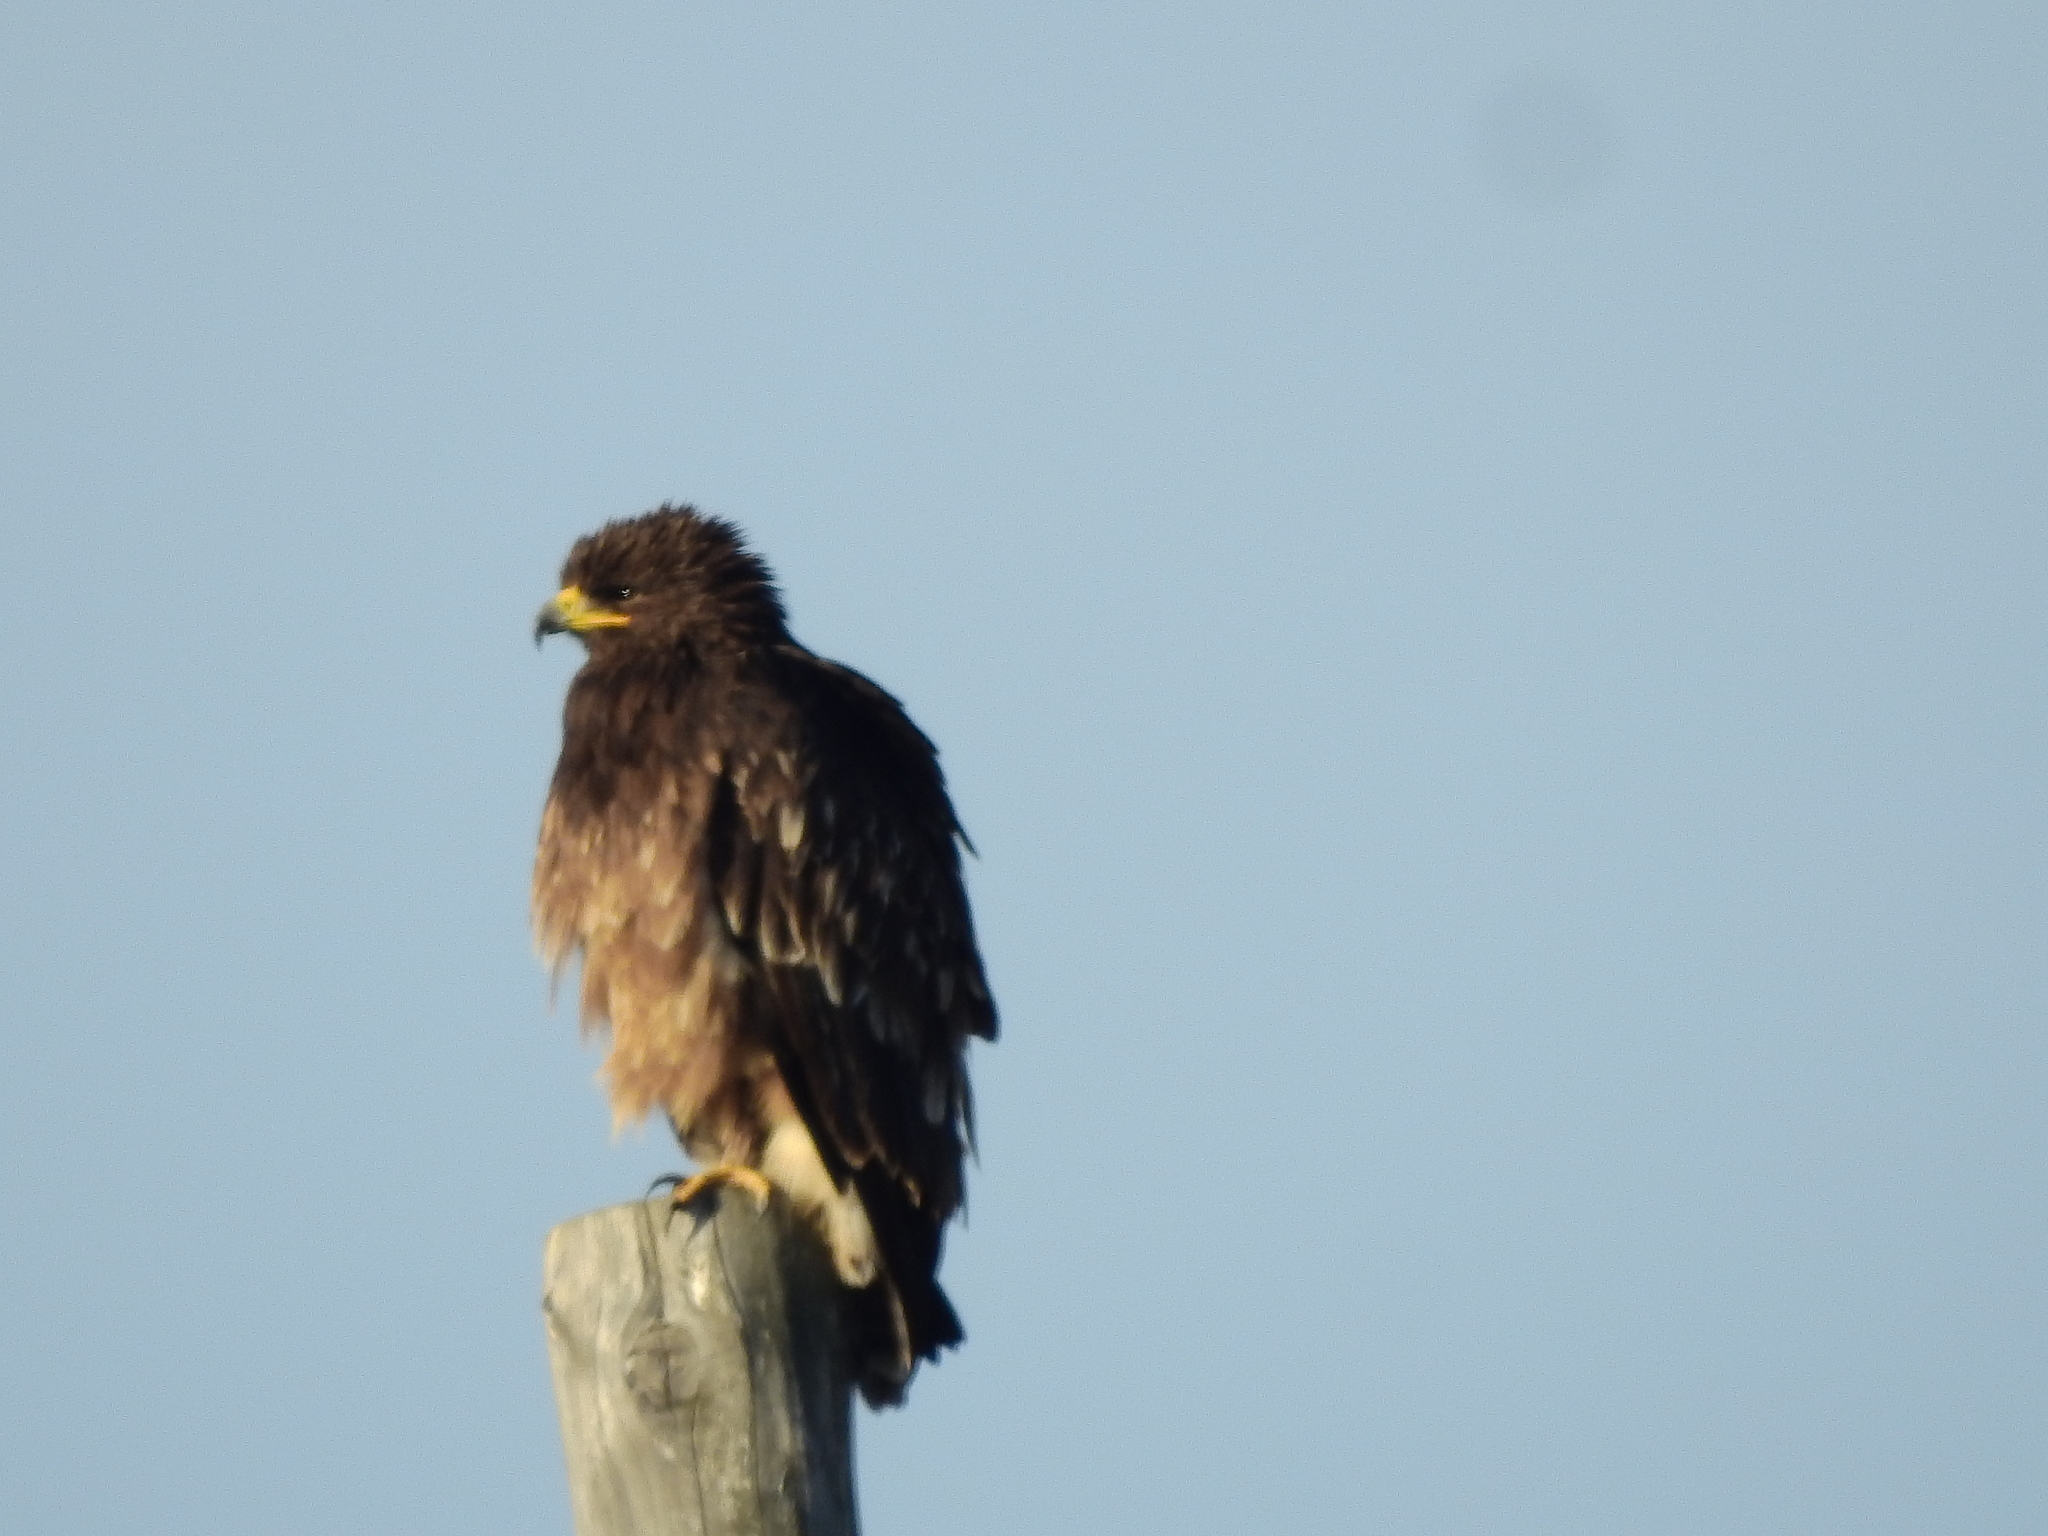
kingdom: Animalia
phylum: Chordata
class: Aves
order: Accipitriformes
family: Accipitridae
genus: Aquila
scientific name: Aquila clanga
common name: Greater spotted eagle
